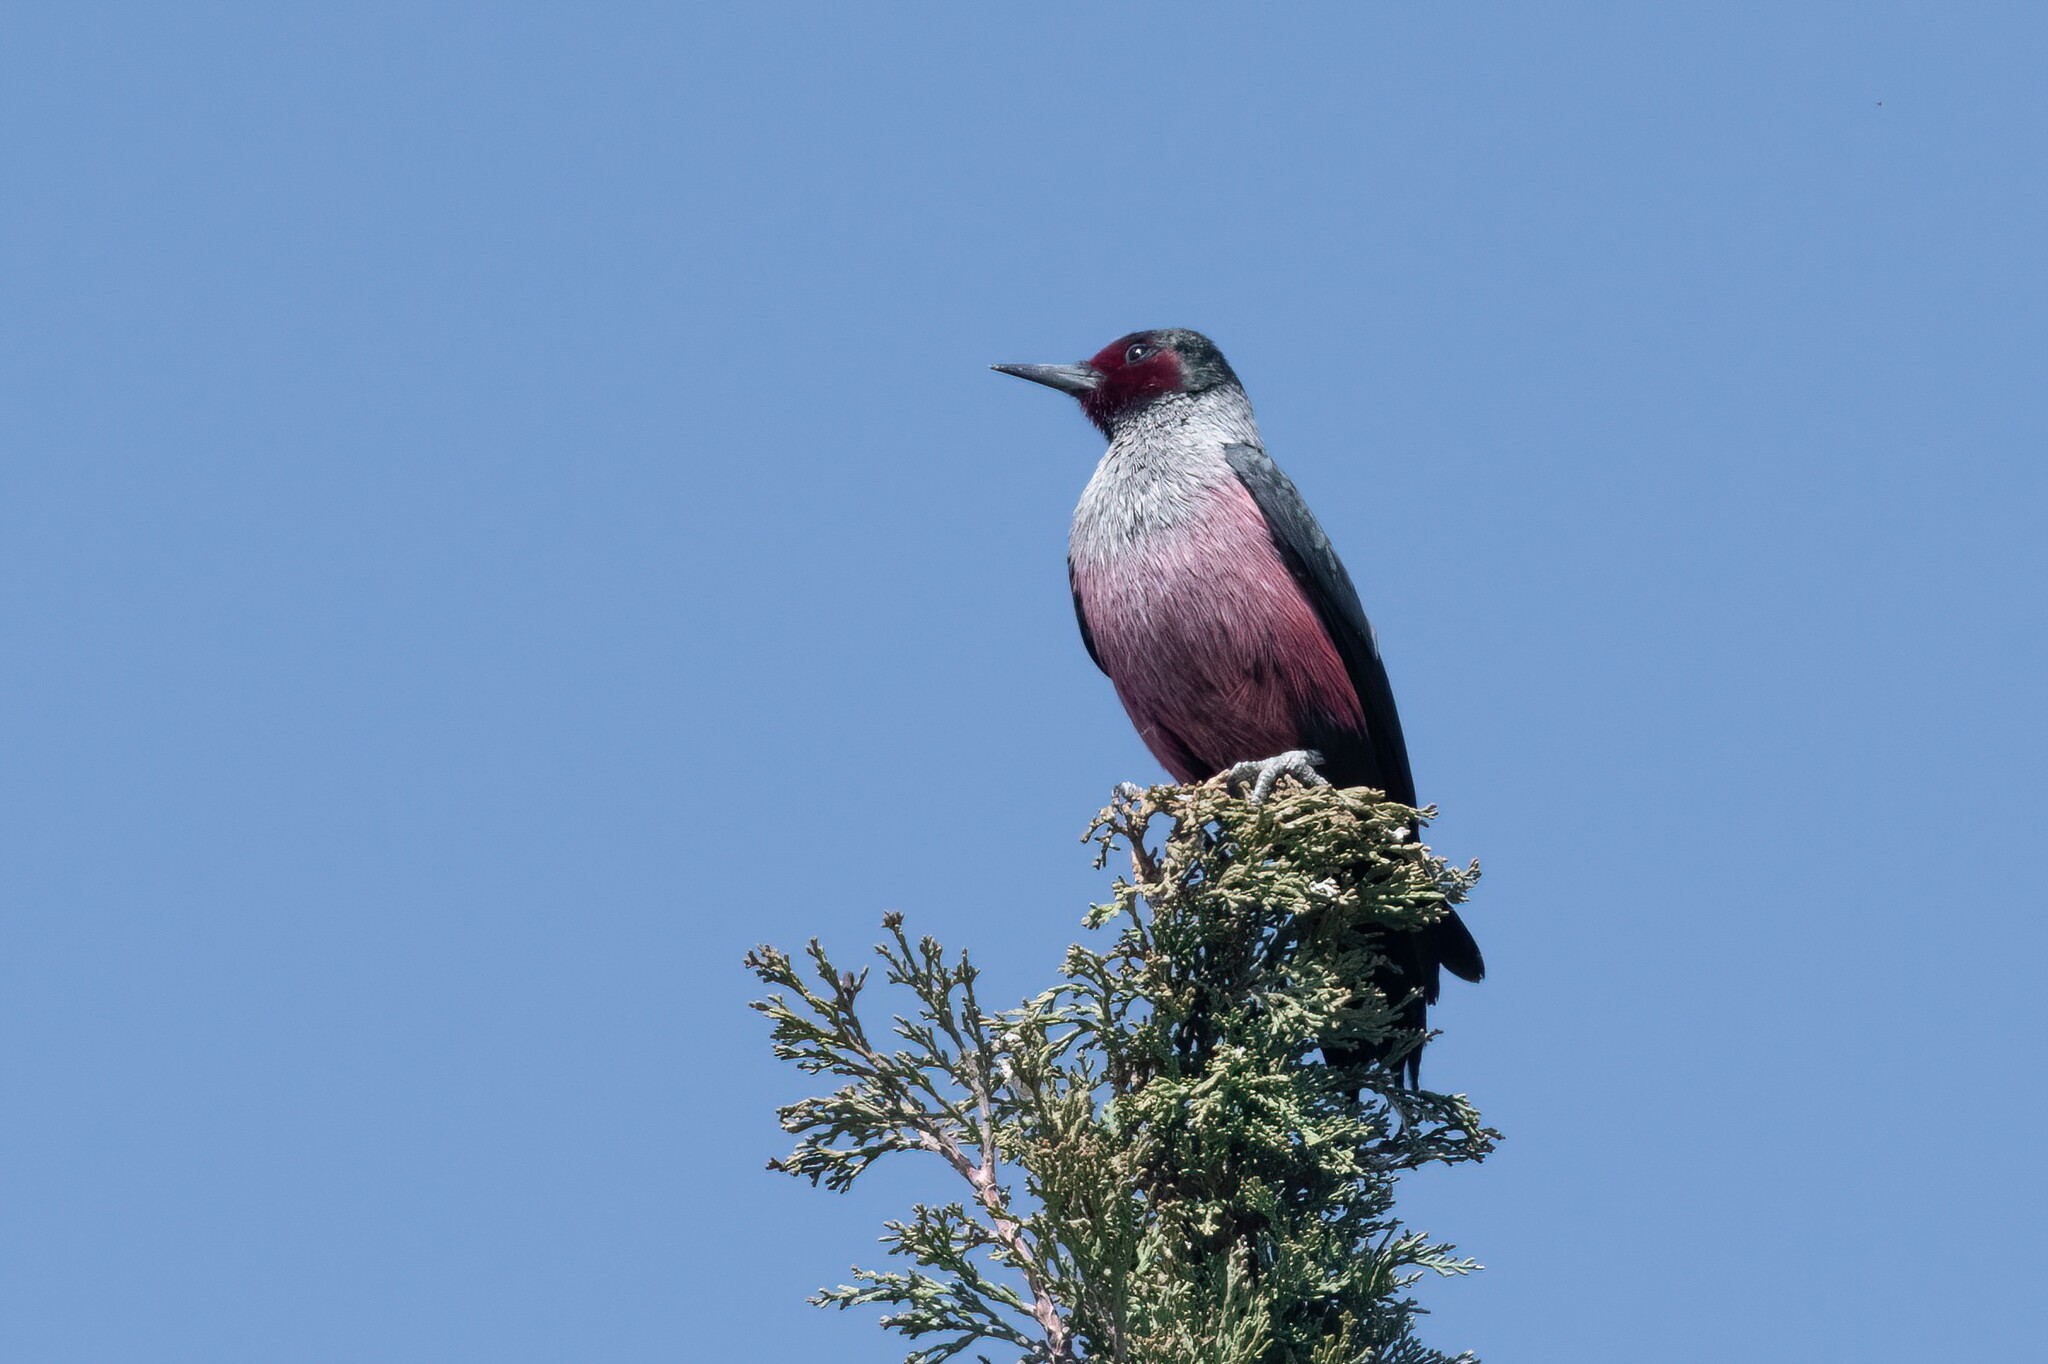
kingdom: Animalia
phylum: Chordata
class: Aves
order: Piciformes
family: Picidae
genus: Melanerpes
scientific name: Melanerpes lewis
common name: Lewis's woodpecker
